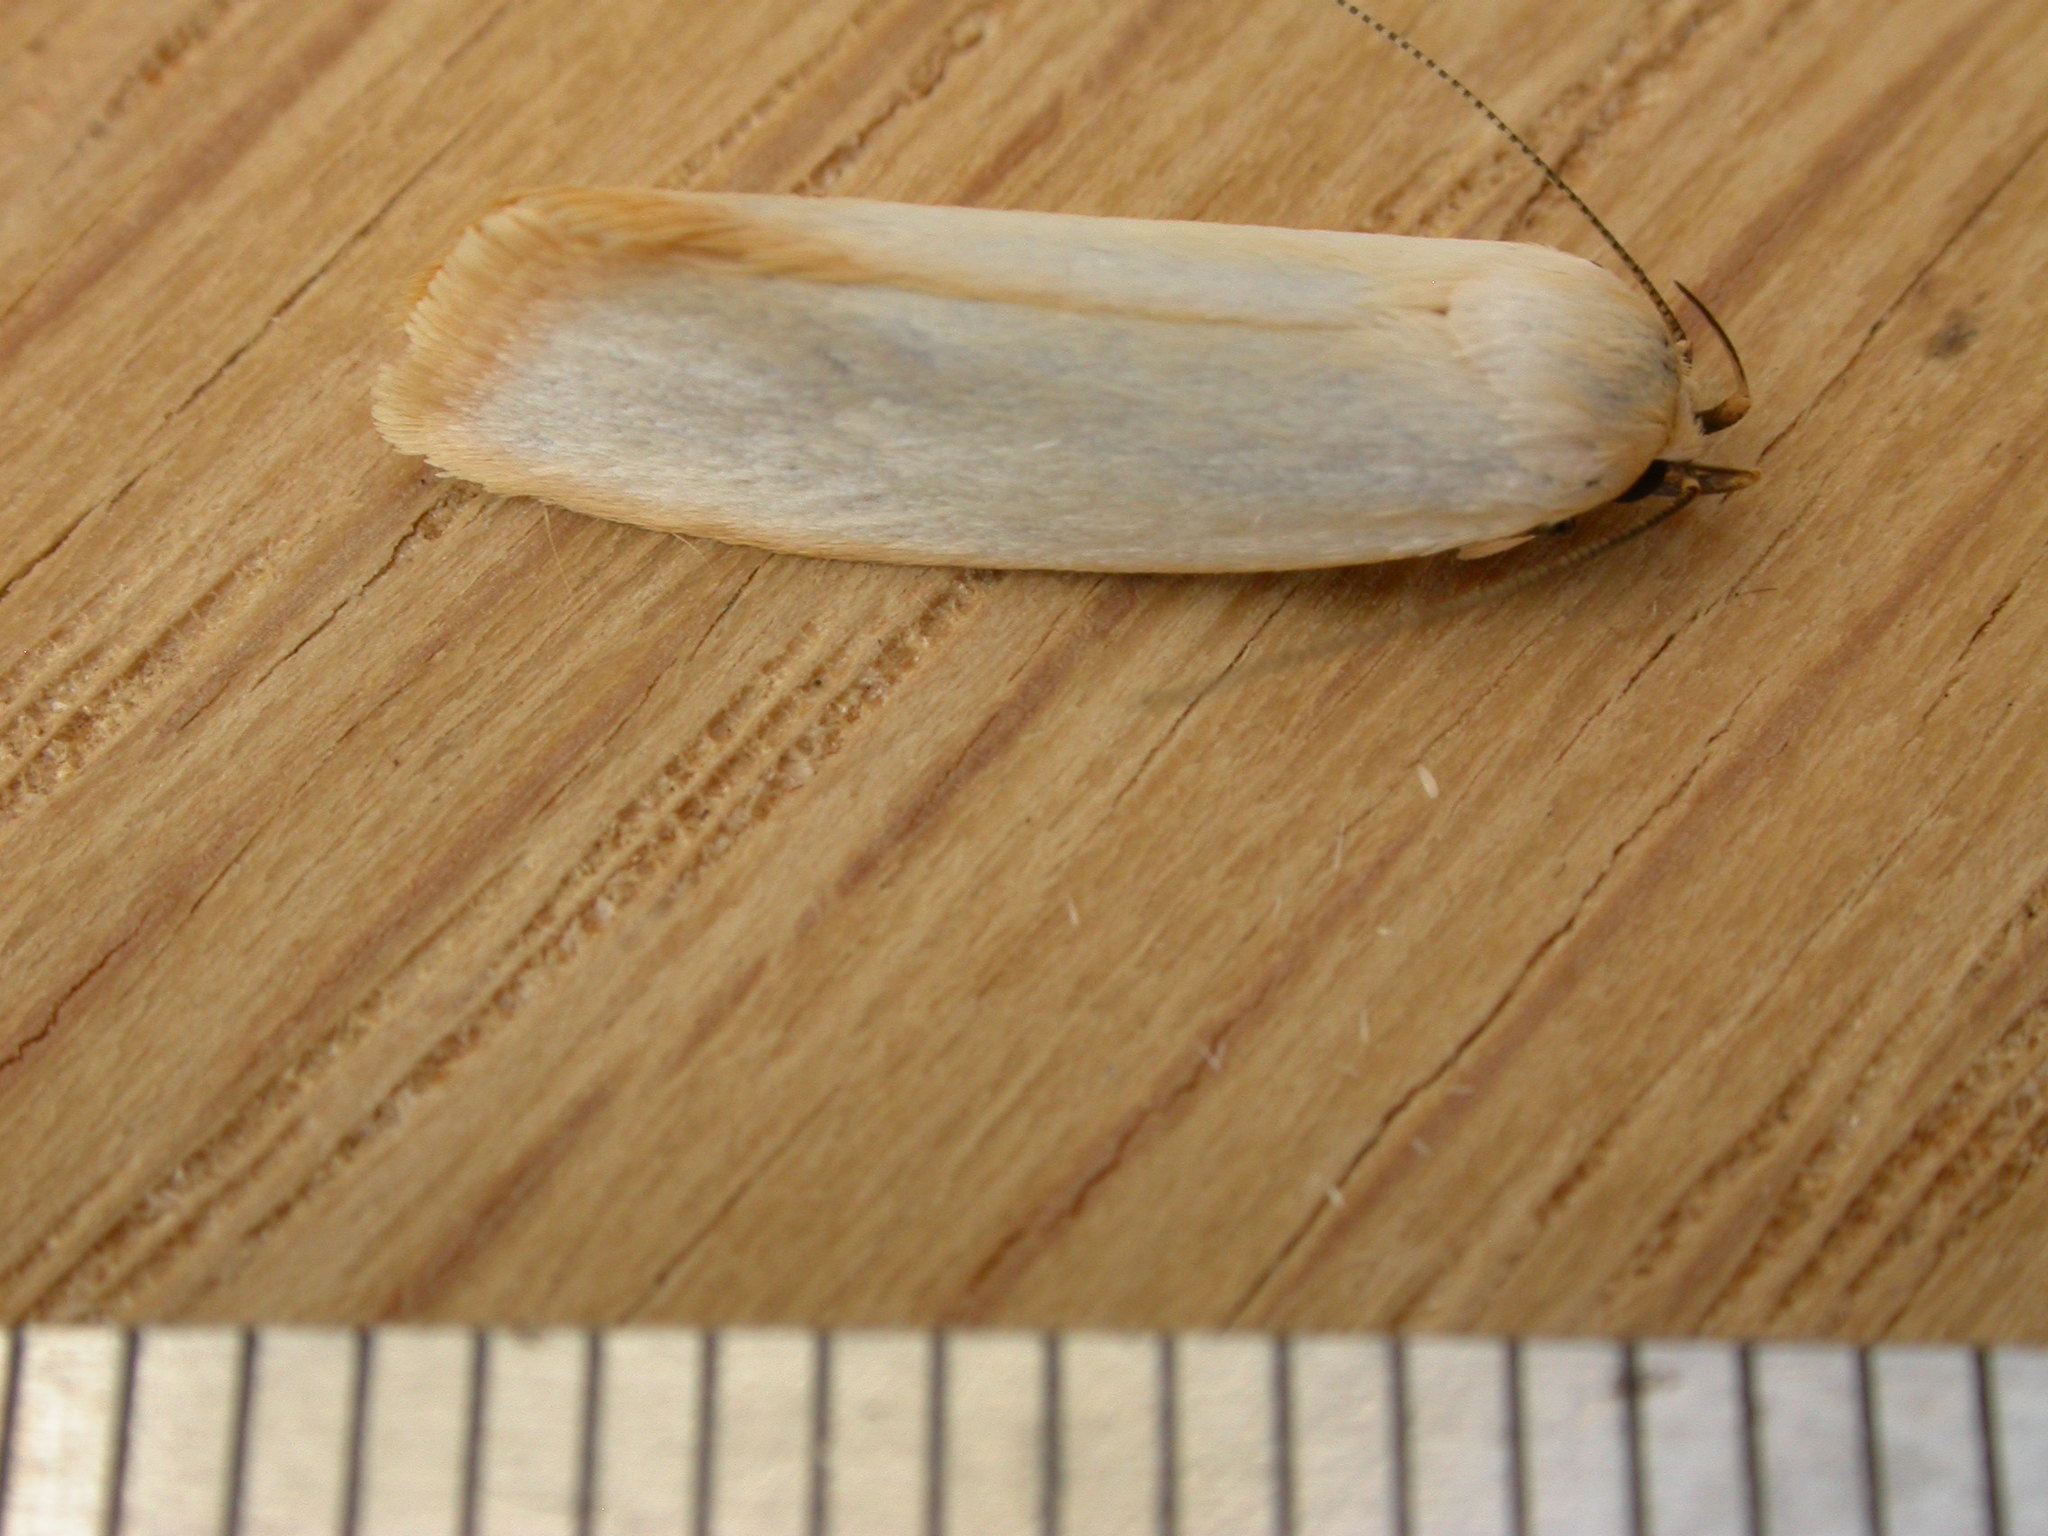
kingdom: Animalia
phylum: Arthropoda
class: Insecta
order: Lepidoptera
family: Xyloryctidae
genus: Xylorycta
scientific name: Xylorycta assimilis
